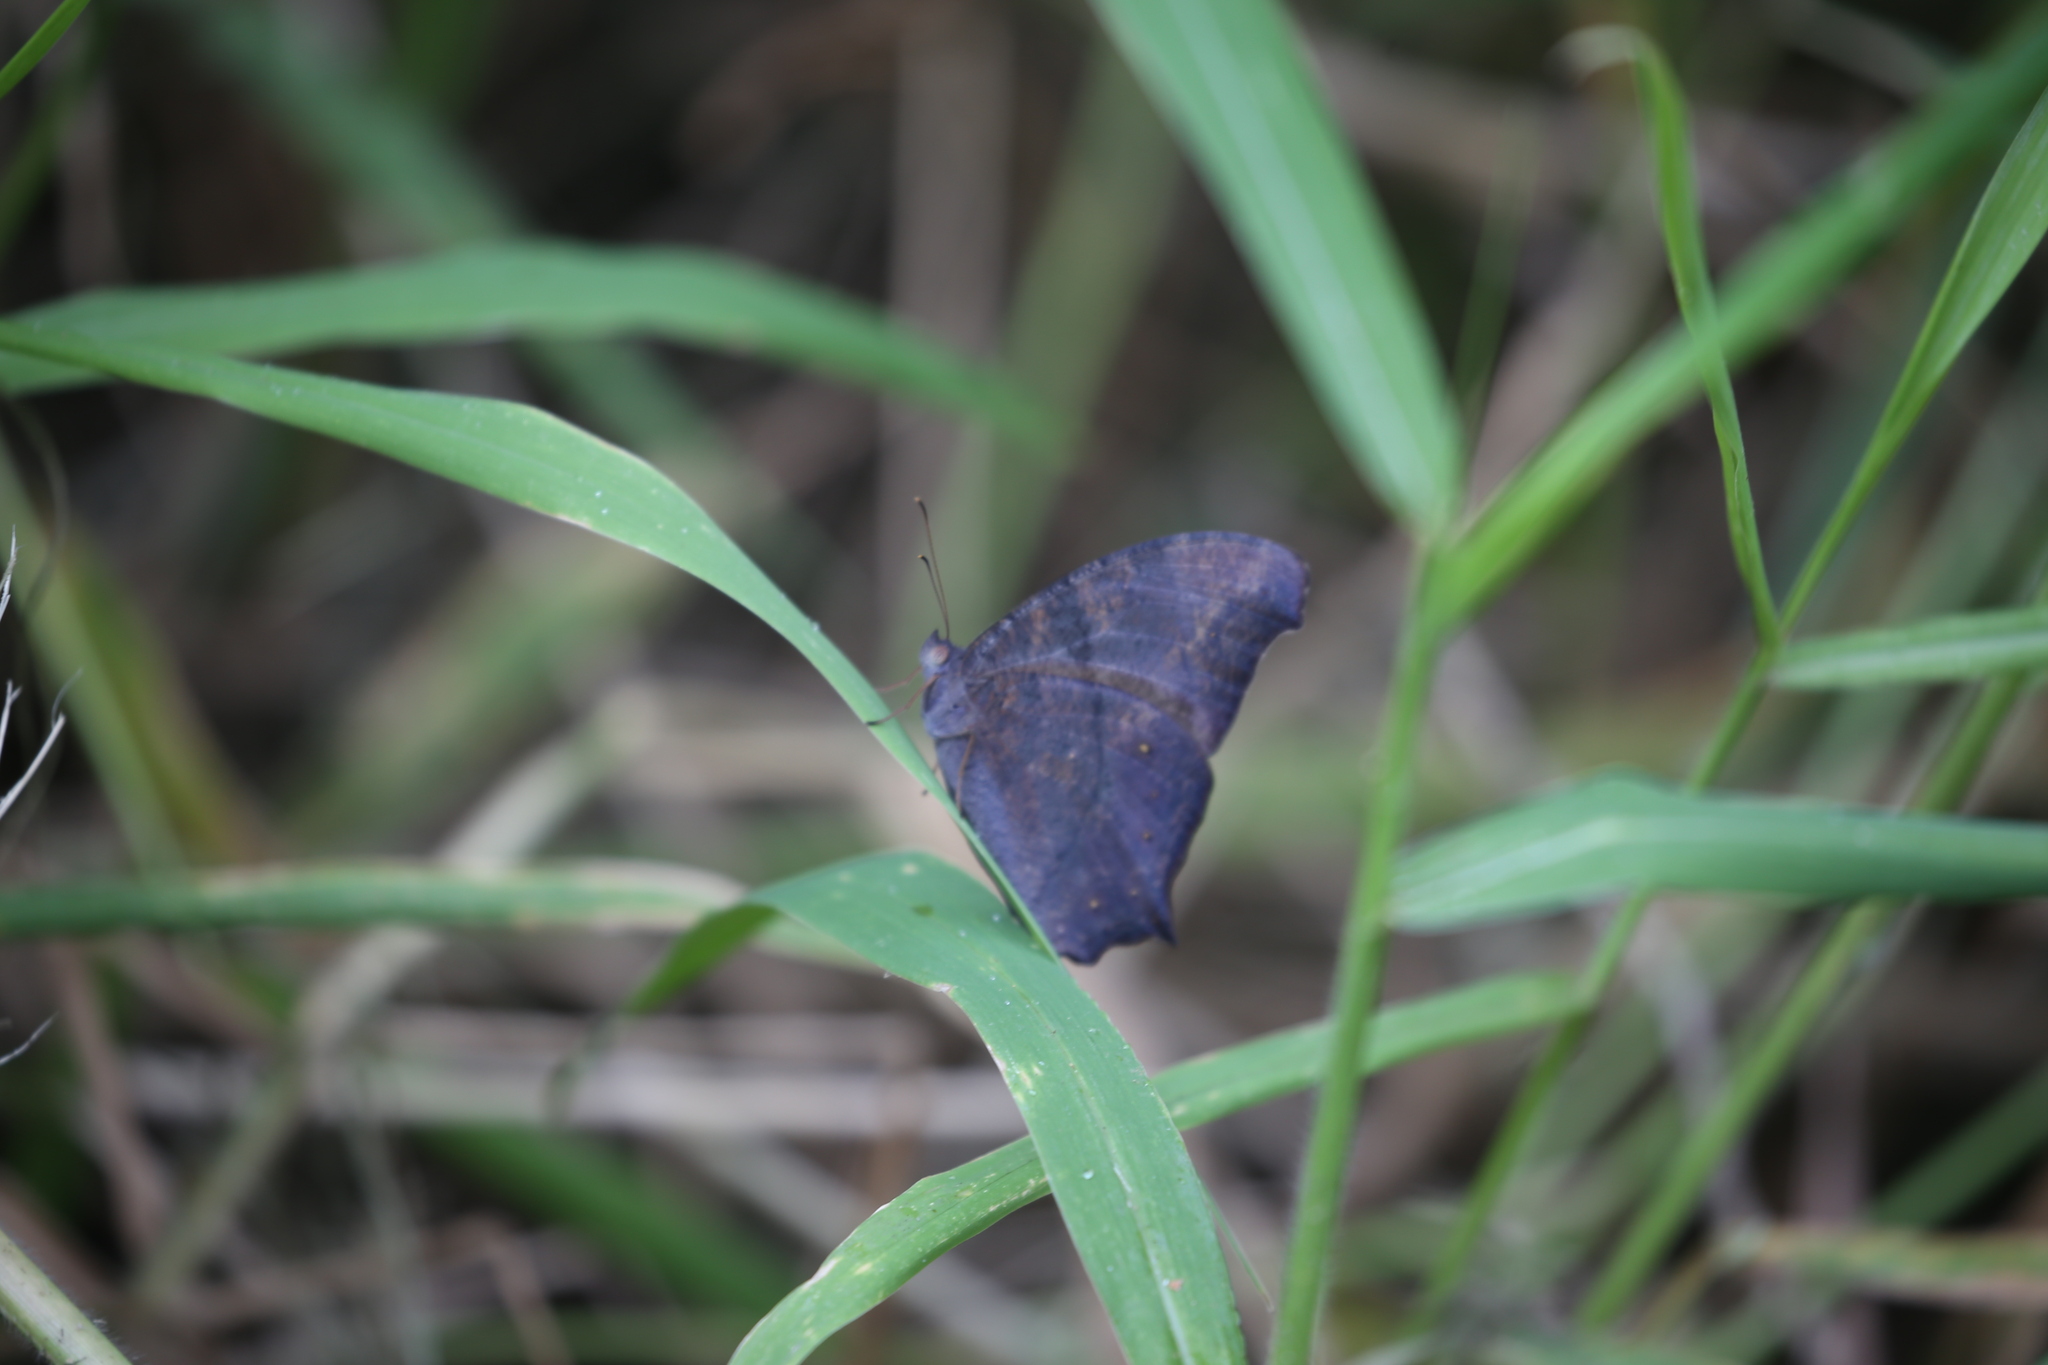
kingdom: Animalia
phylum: Arthropoda
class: Insecta
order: Lepidoptera
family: Nymphalidae
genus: Melanitis
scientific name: Melanitis leda
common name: Twilight brown
